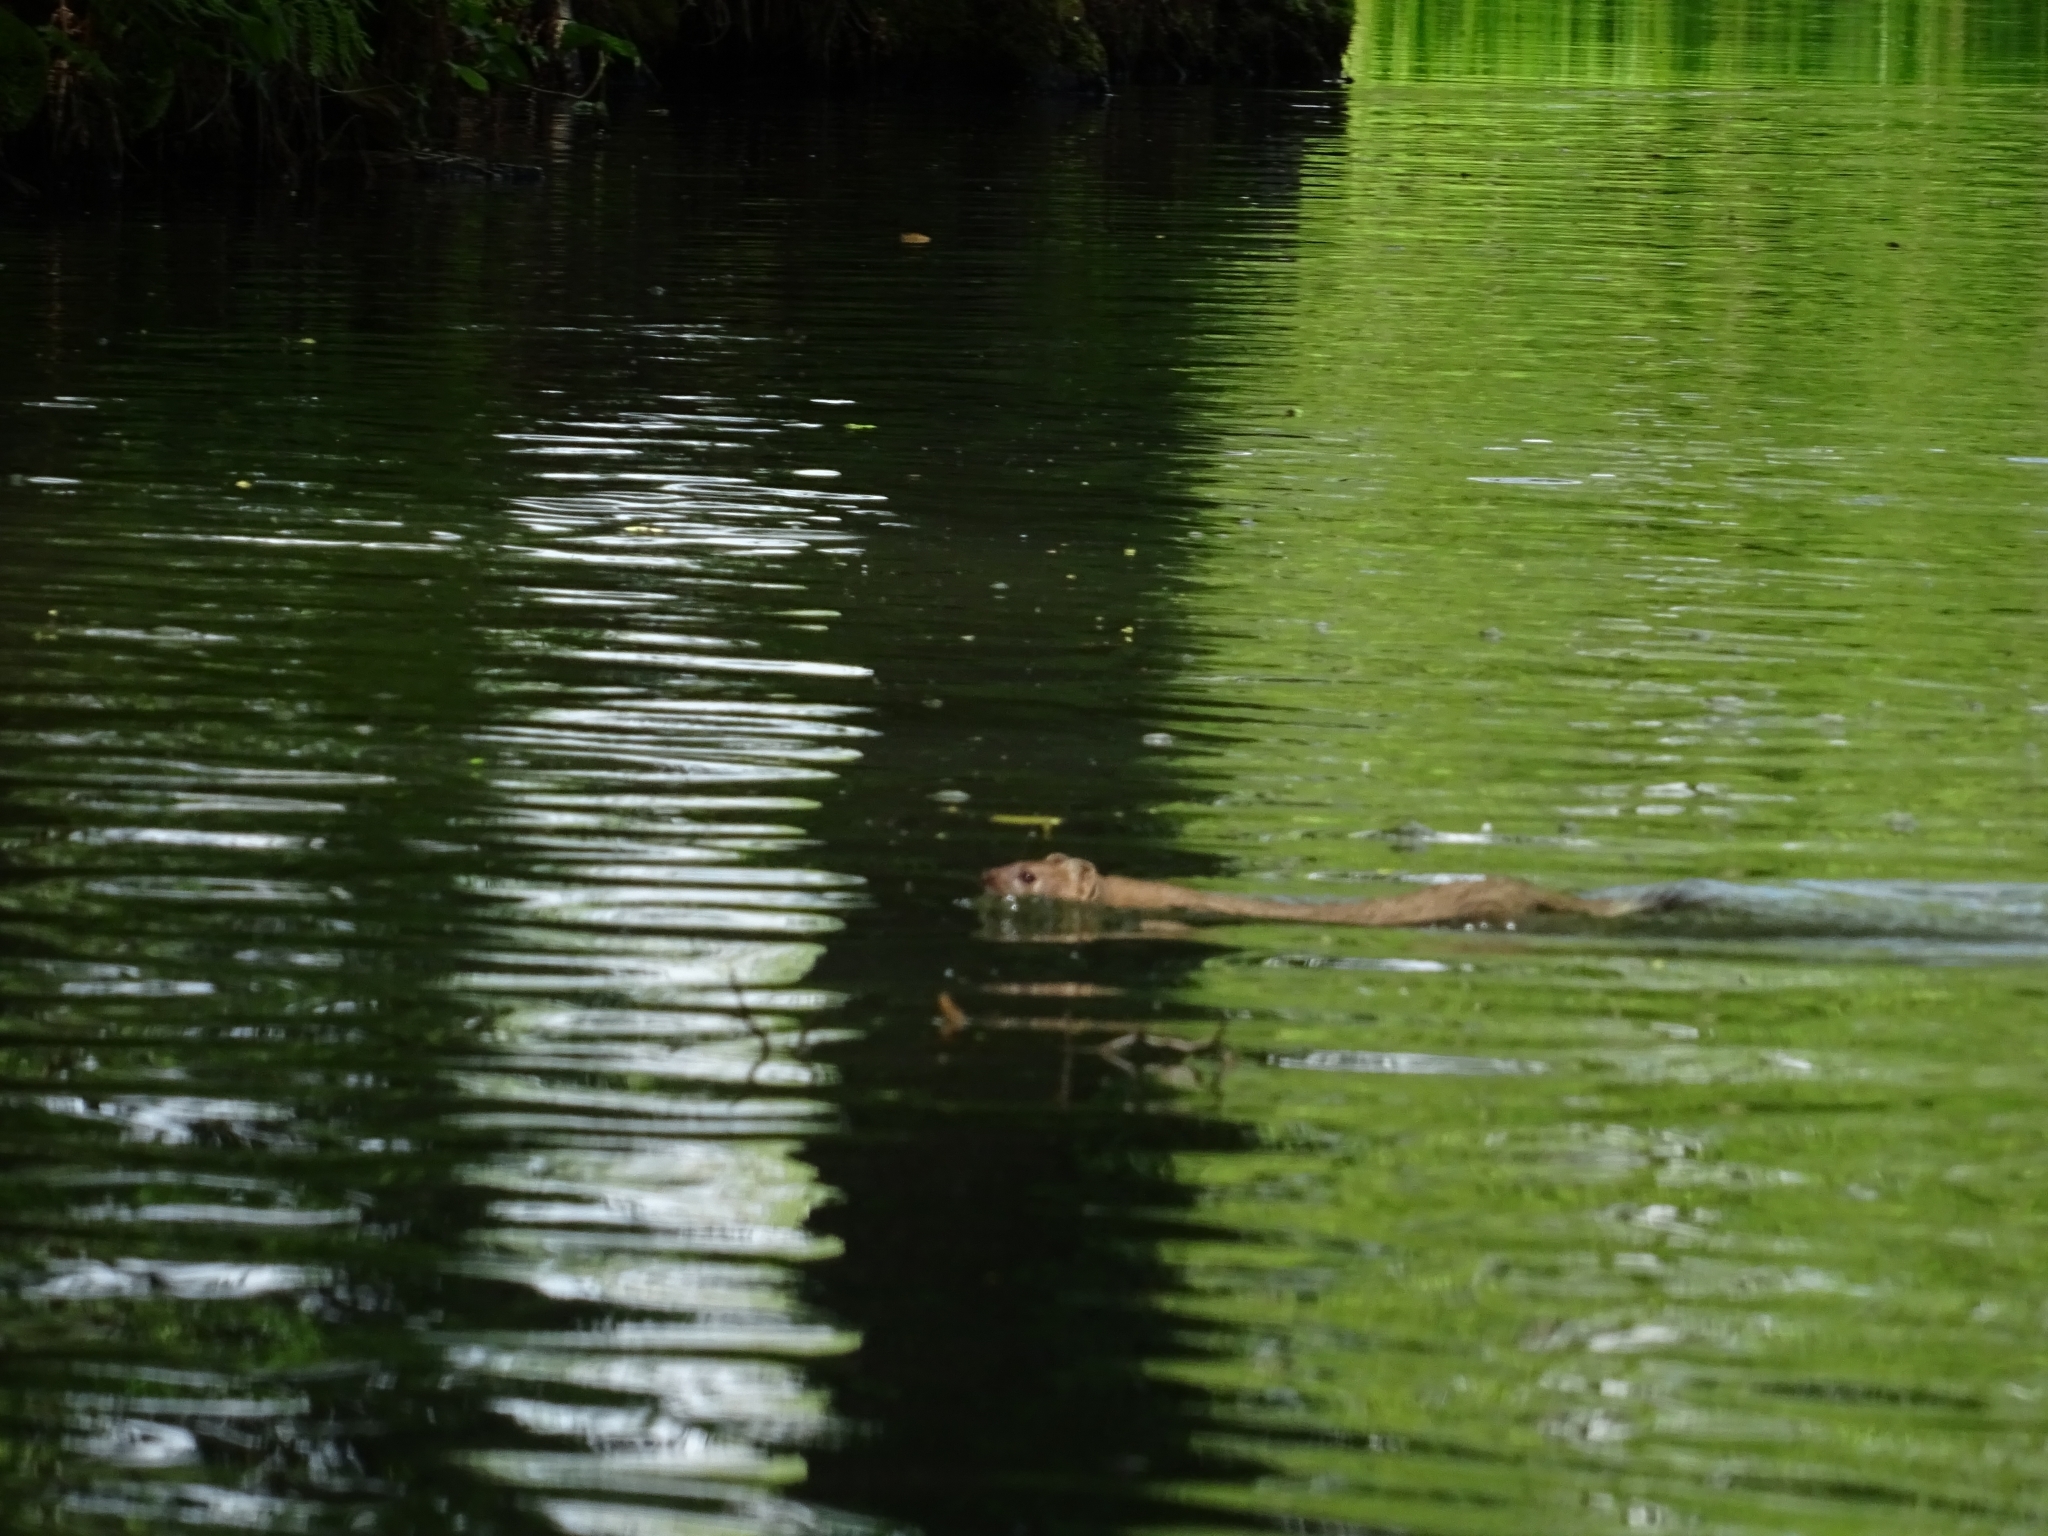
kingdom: Animalia
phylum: Chordata
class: Mammalia
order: Carnivora
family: Mustelidae
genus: Mustela
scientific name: Mustela erminea
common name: Stoat
